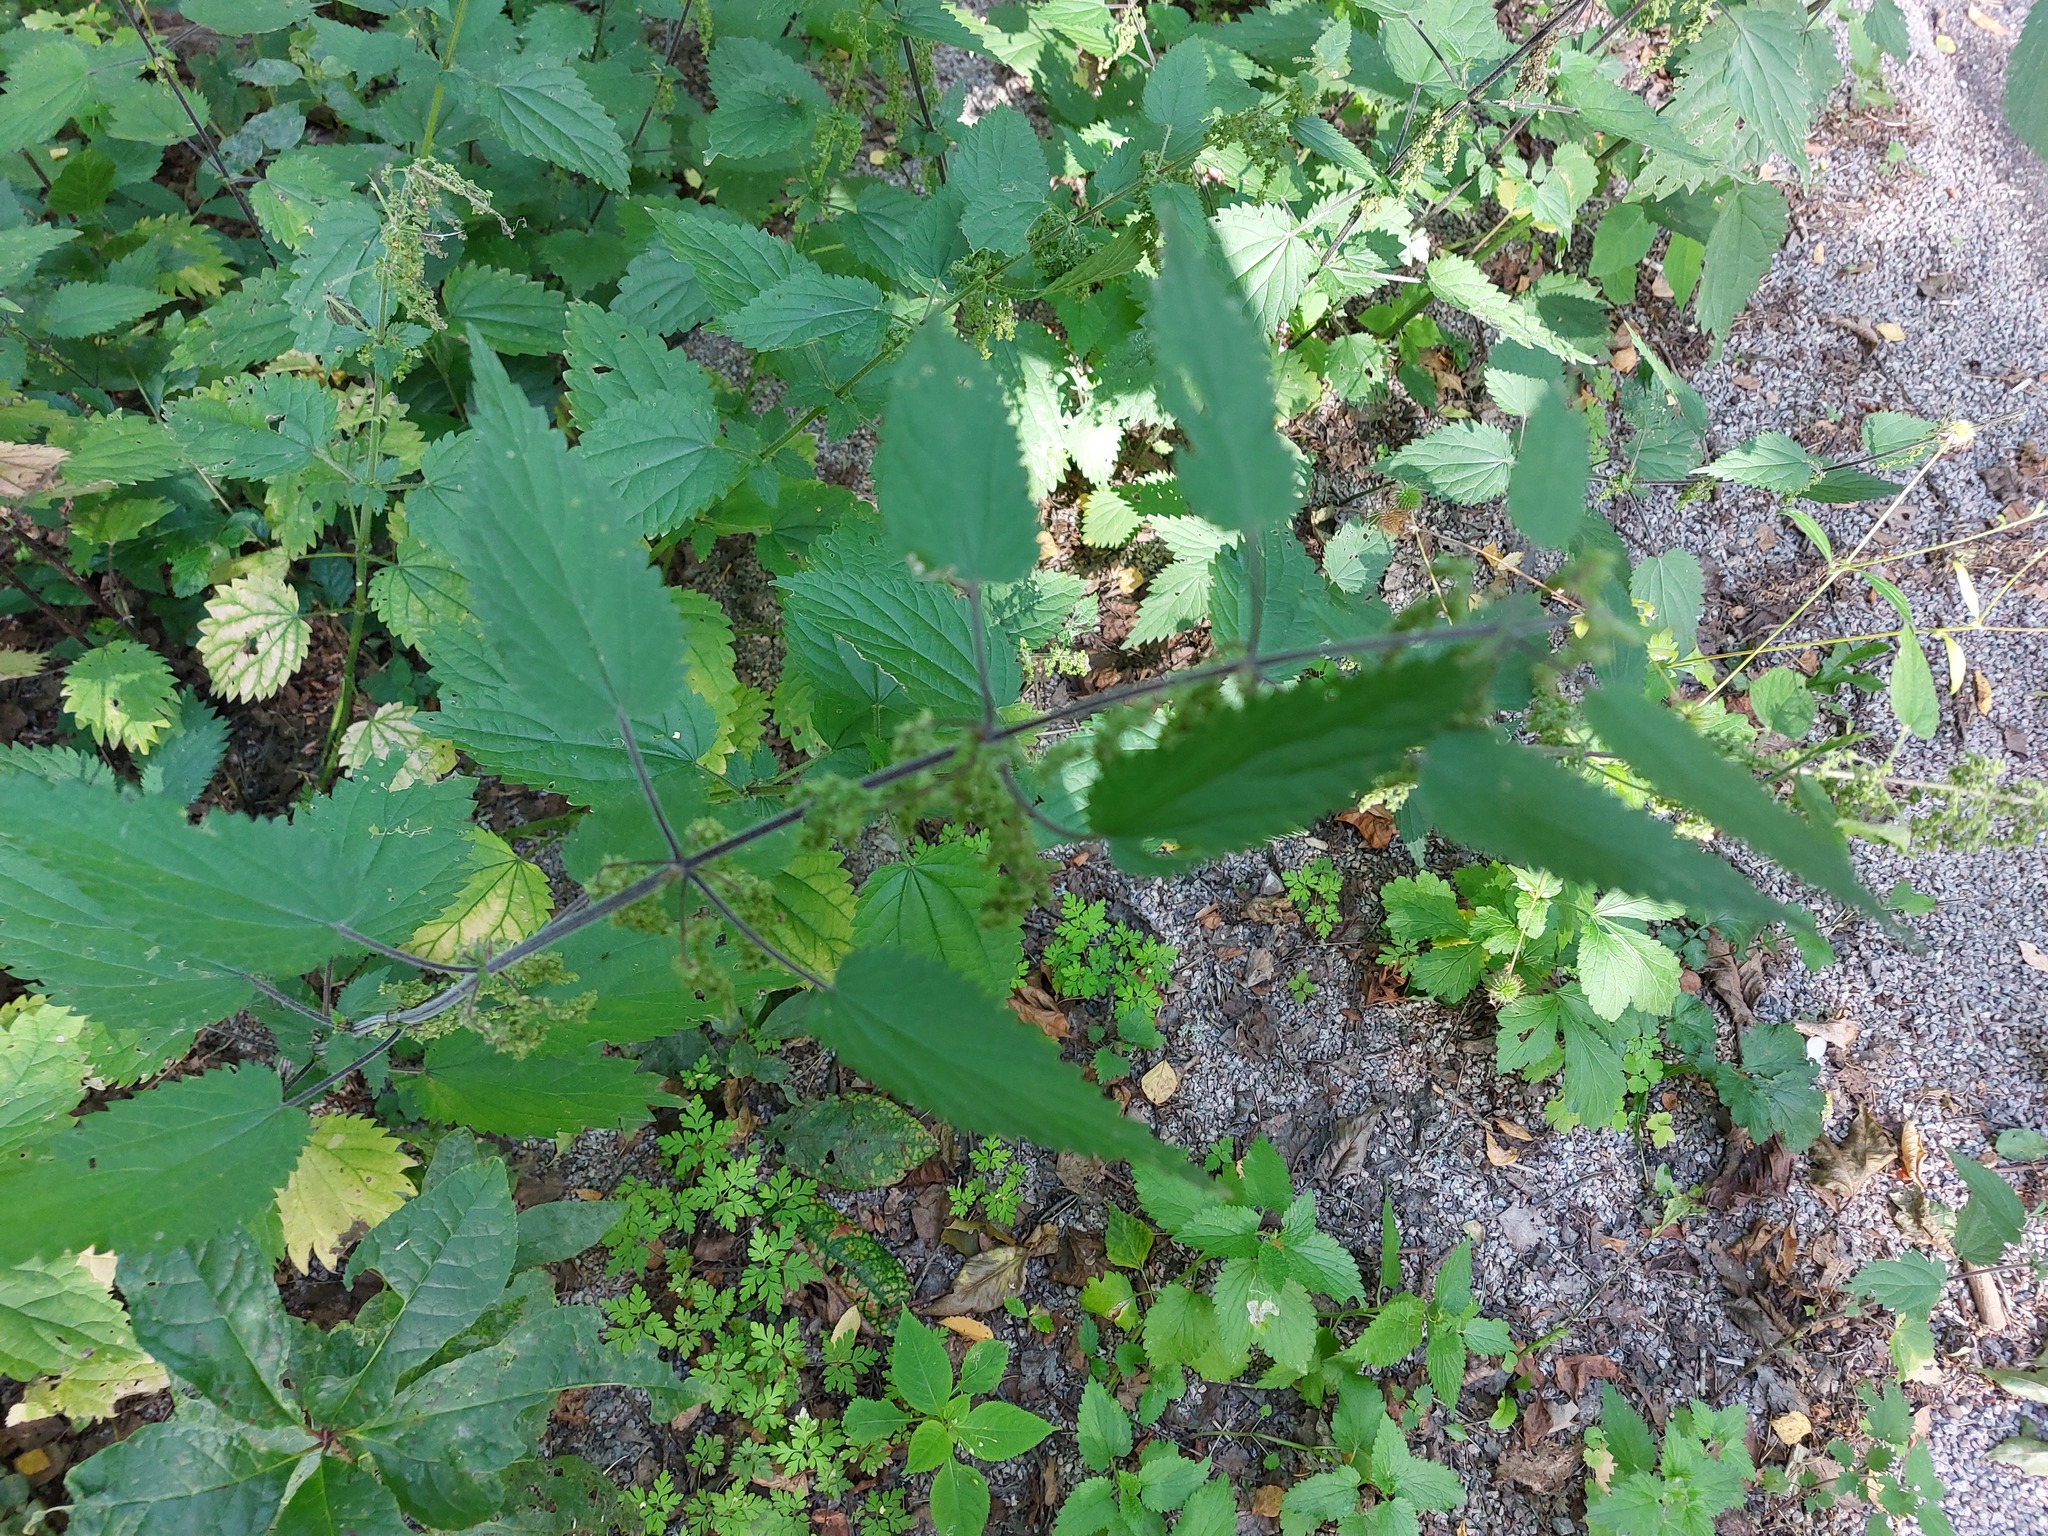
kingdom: Plantae
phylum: Tracheophyta
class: Magnoliopsida
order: Rosales
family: Urticaceae
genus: Urtica
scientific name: Urtica dioica
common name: Common nettle
